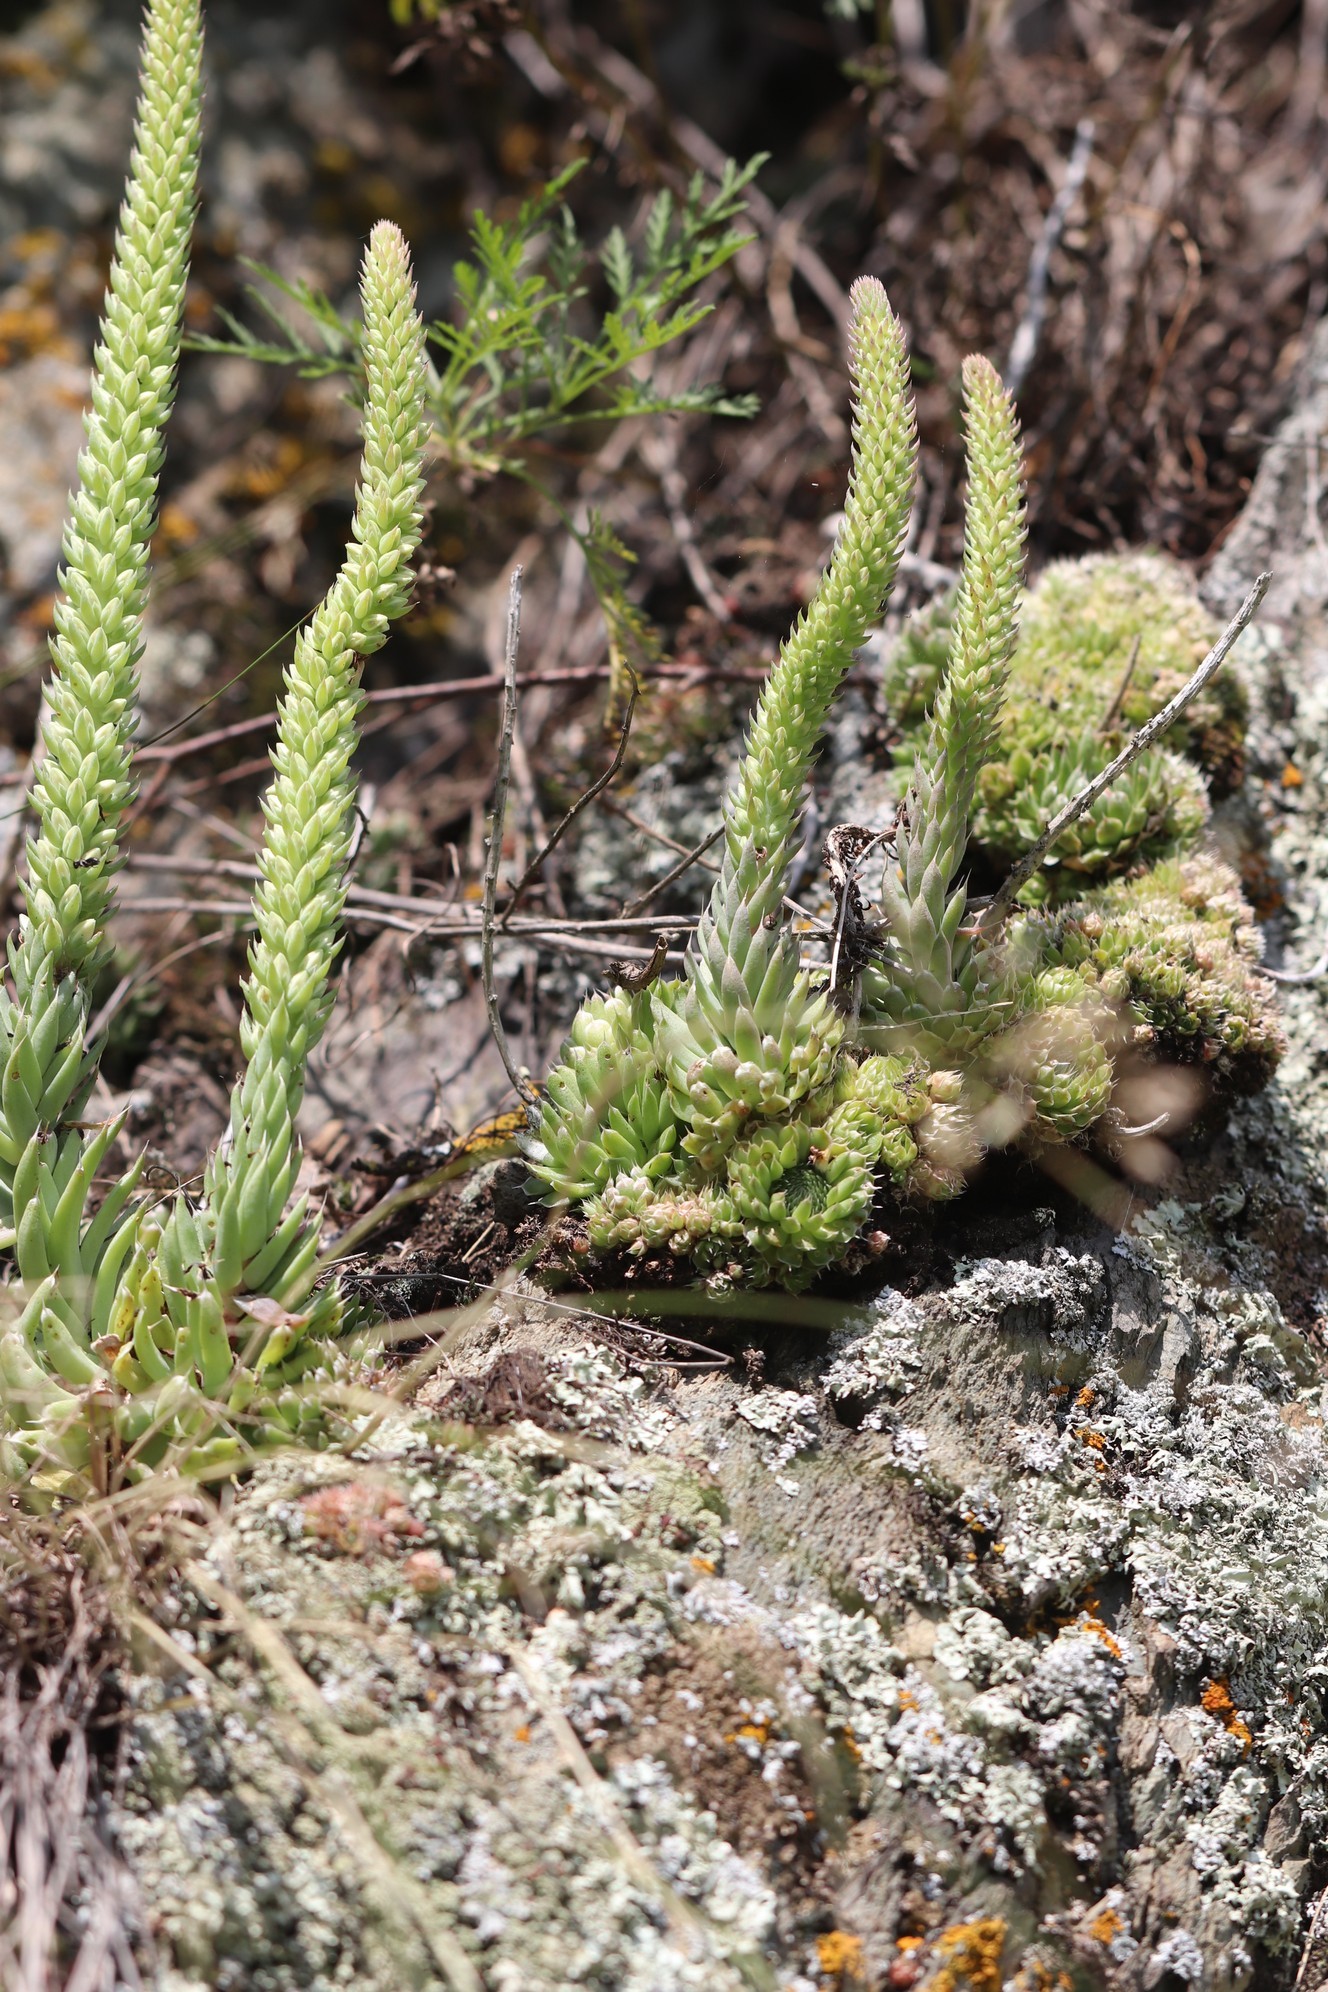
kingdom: Plantae
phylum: Tracheophyta
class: Magnoliopsida
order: Saxifragales
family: Crassulaceae
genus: Orostachys
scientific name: Orostachys spinosa
